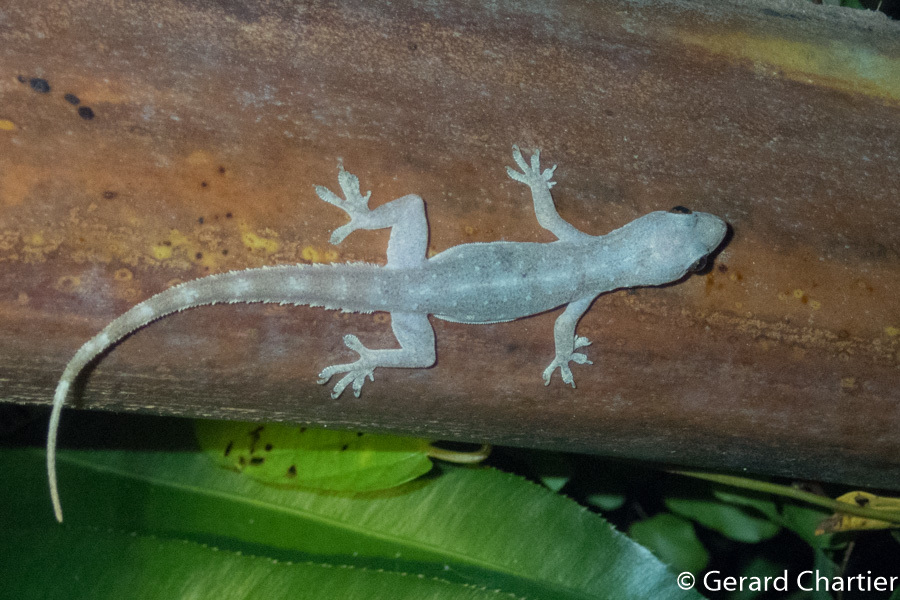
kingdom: Animalia
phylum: Chordata
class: Squamata
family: Gekkonidae
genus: Hemidactylus
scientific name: Hemidactylus garnotii
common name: Indo-pacific gecko
